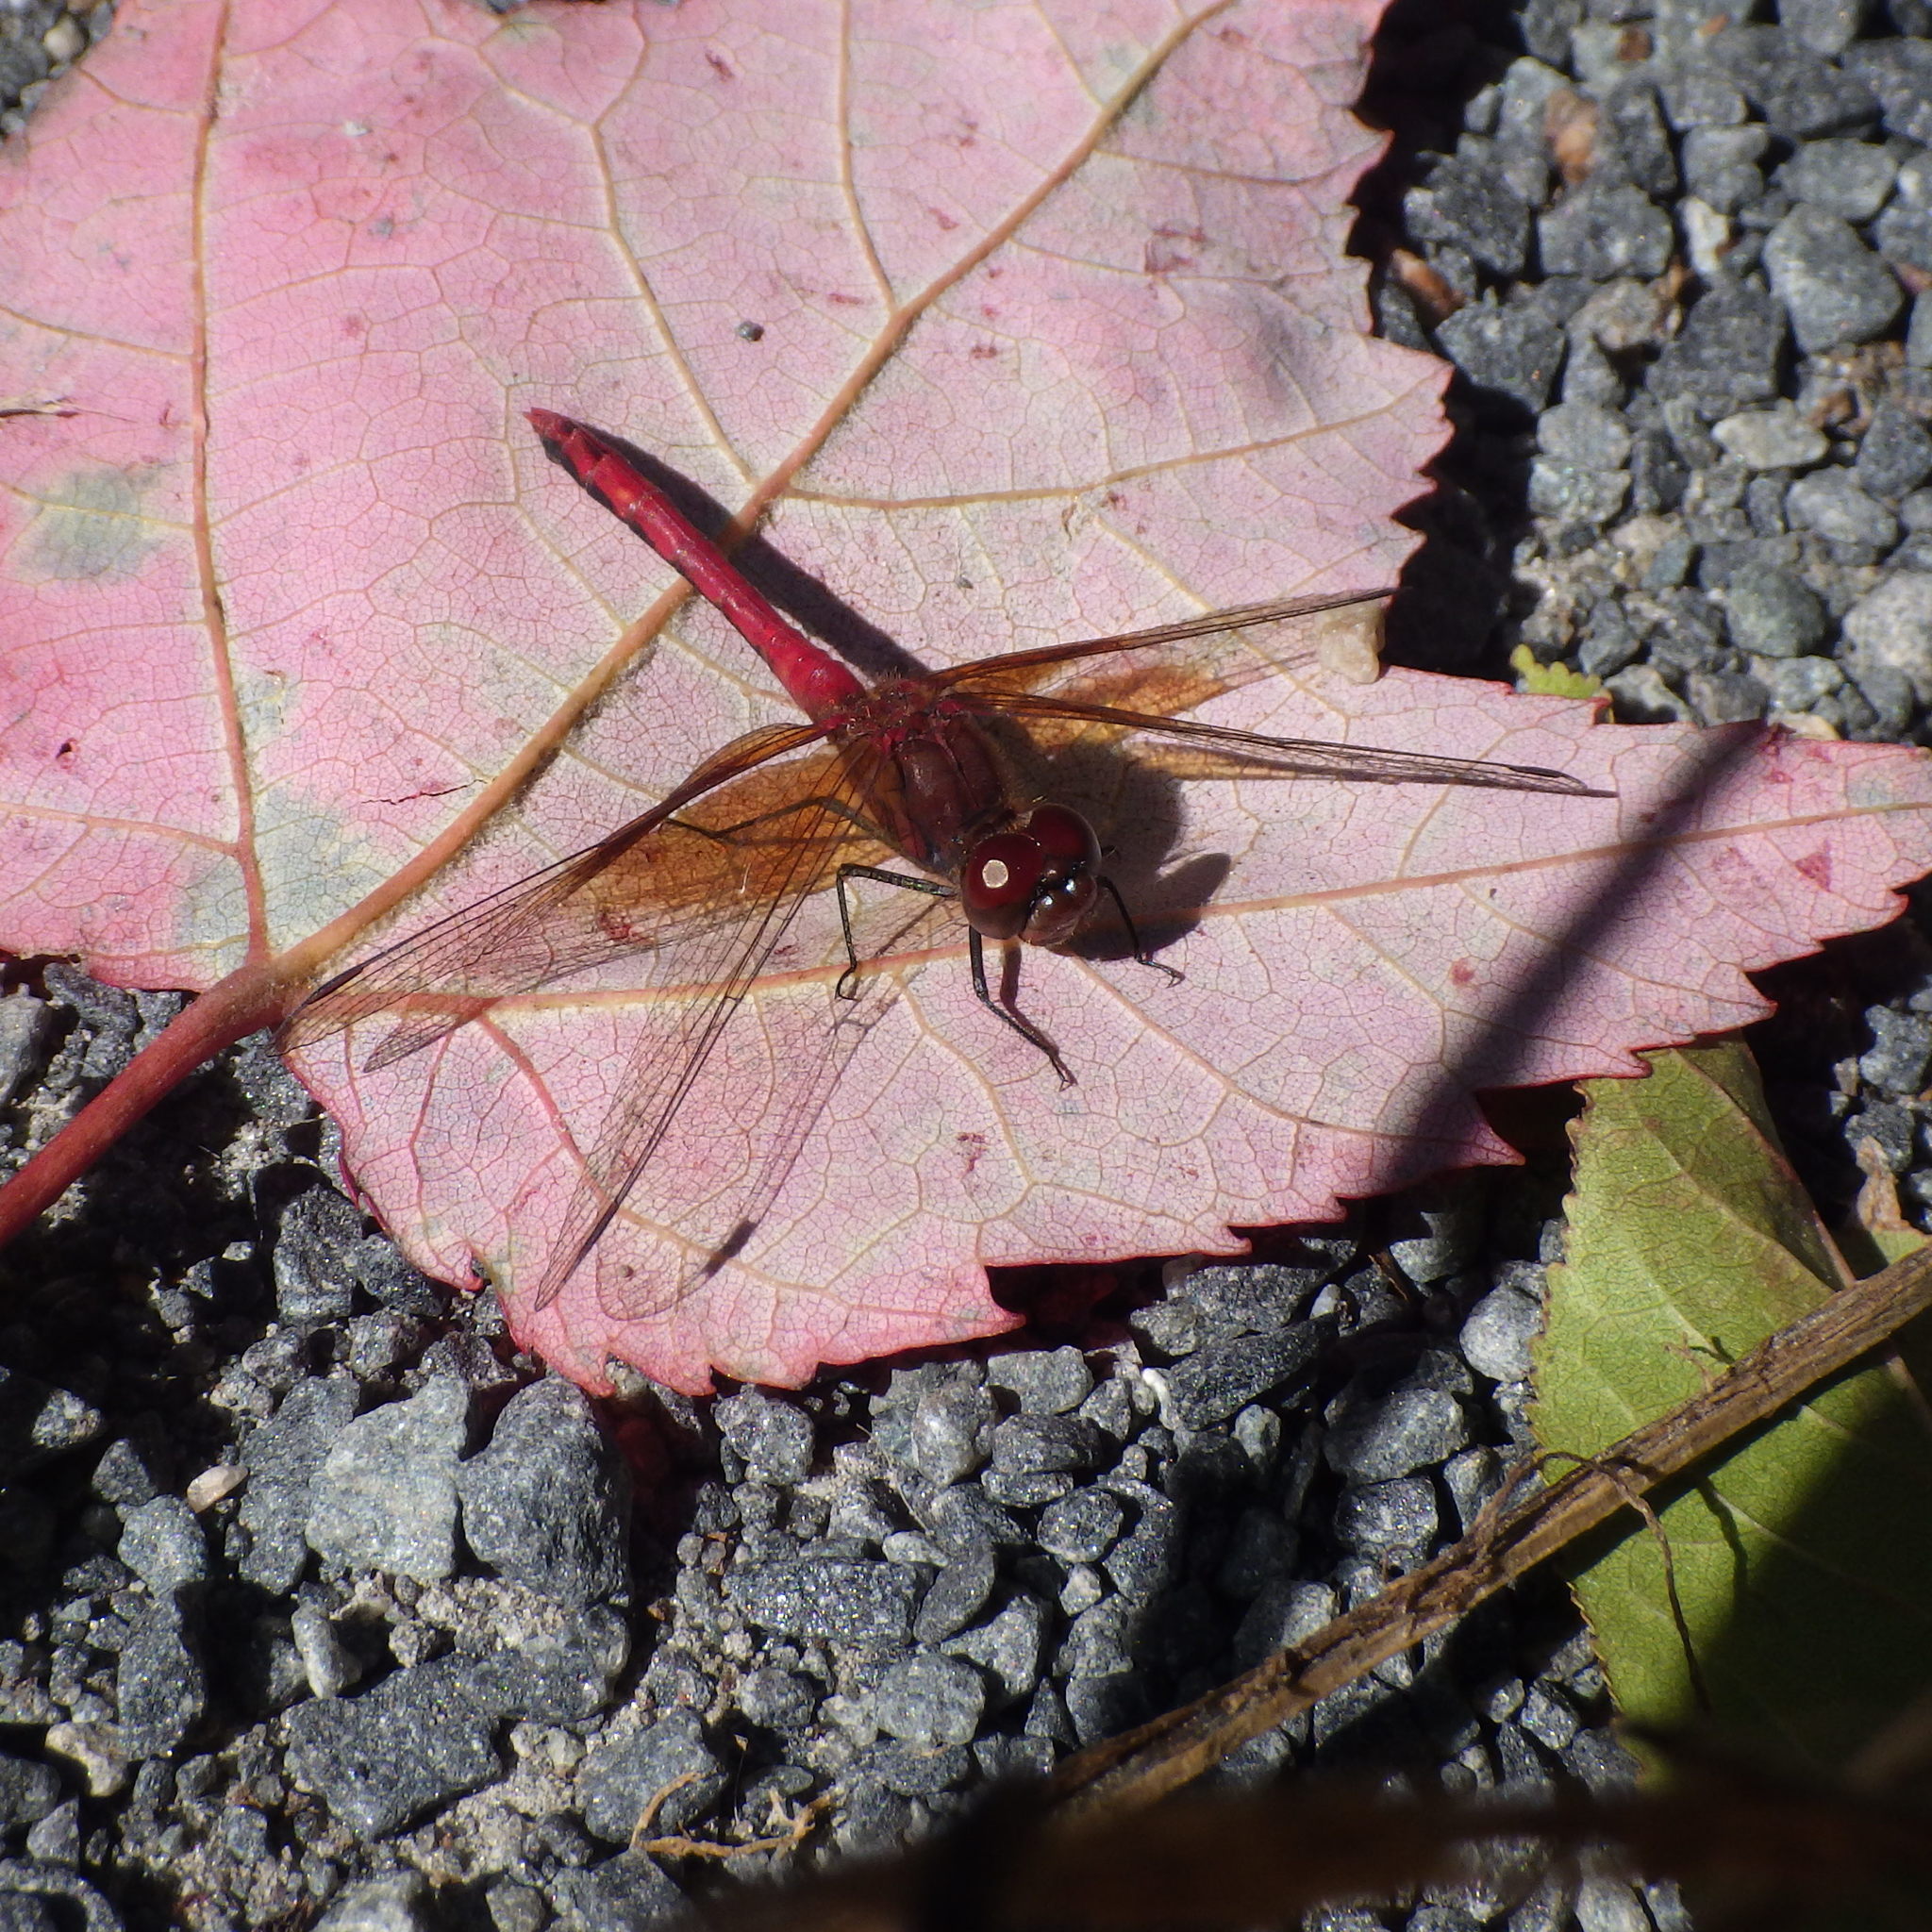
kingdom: Animalia
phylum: Arthropoda
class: Insecta
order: Odonata
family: Libellulidae
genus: Sympetrum
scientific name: Sympetrum semicinctum
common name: Band-winged meadowhawk
